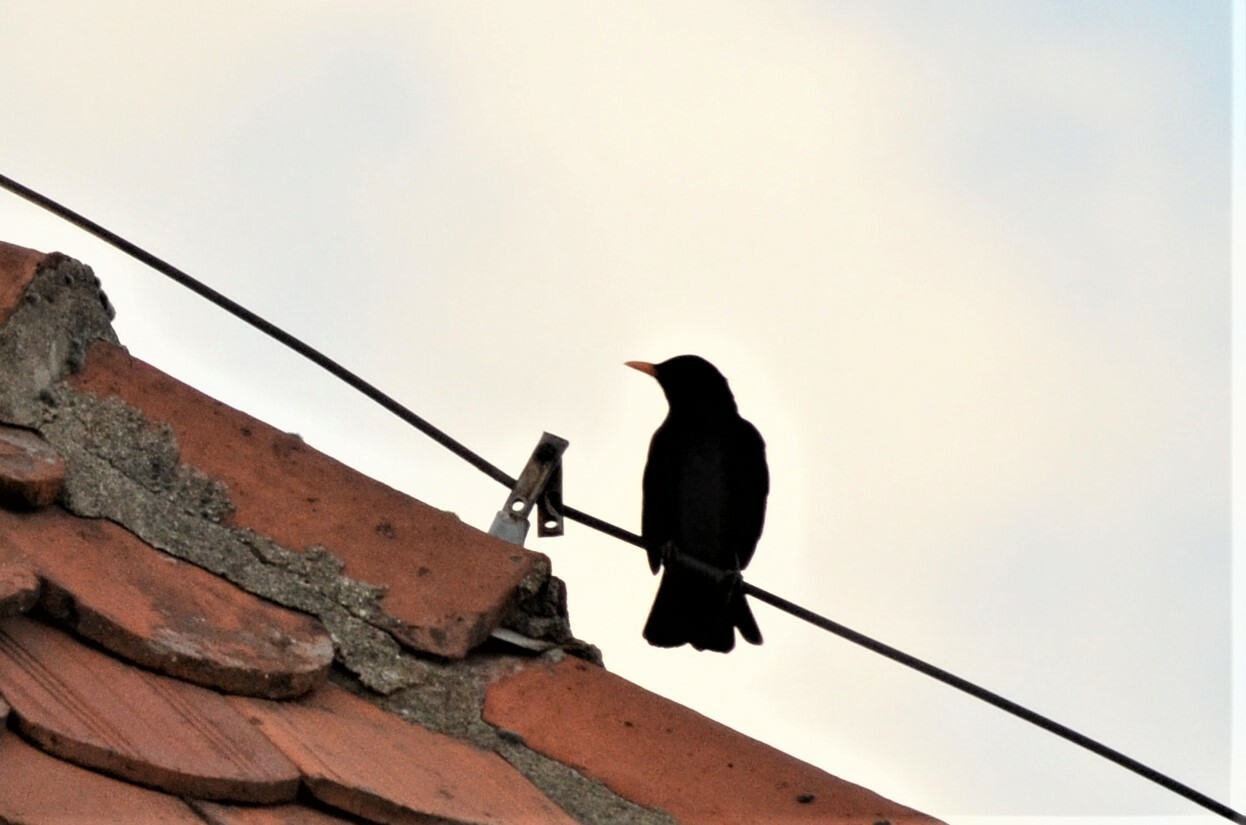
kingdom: Animalia
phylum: Chordata
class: Aves
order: Passeriformes
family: Turdidae
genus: Turdus
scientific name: Turdus merula
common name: Common blackbird
